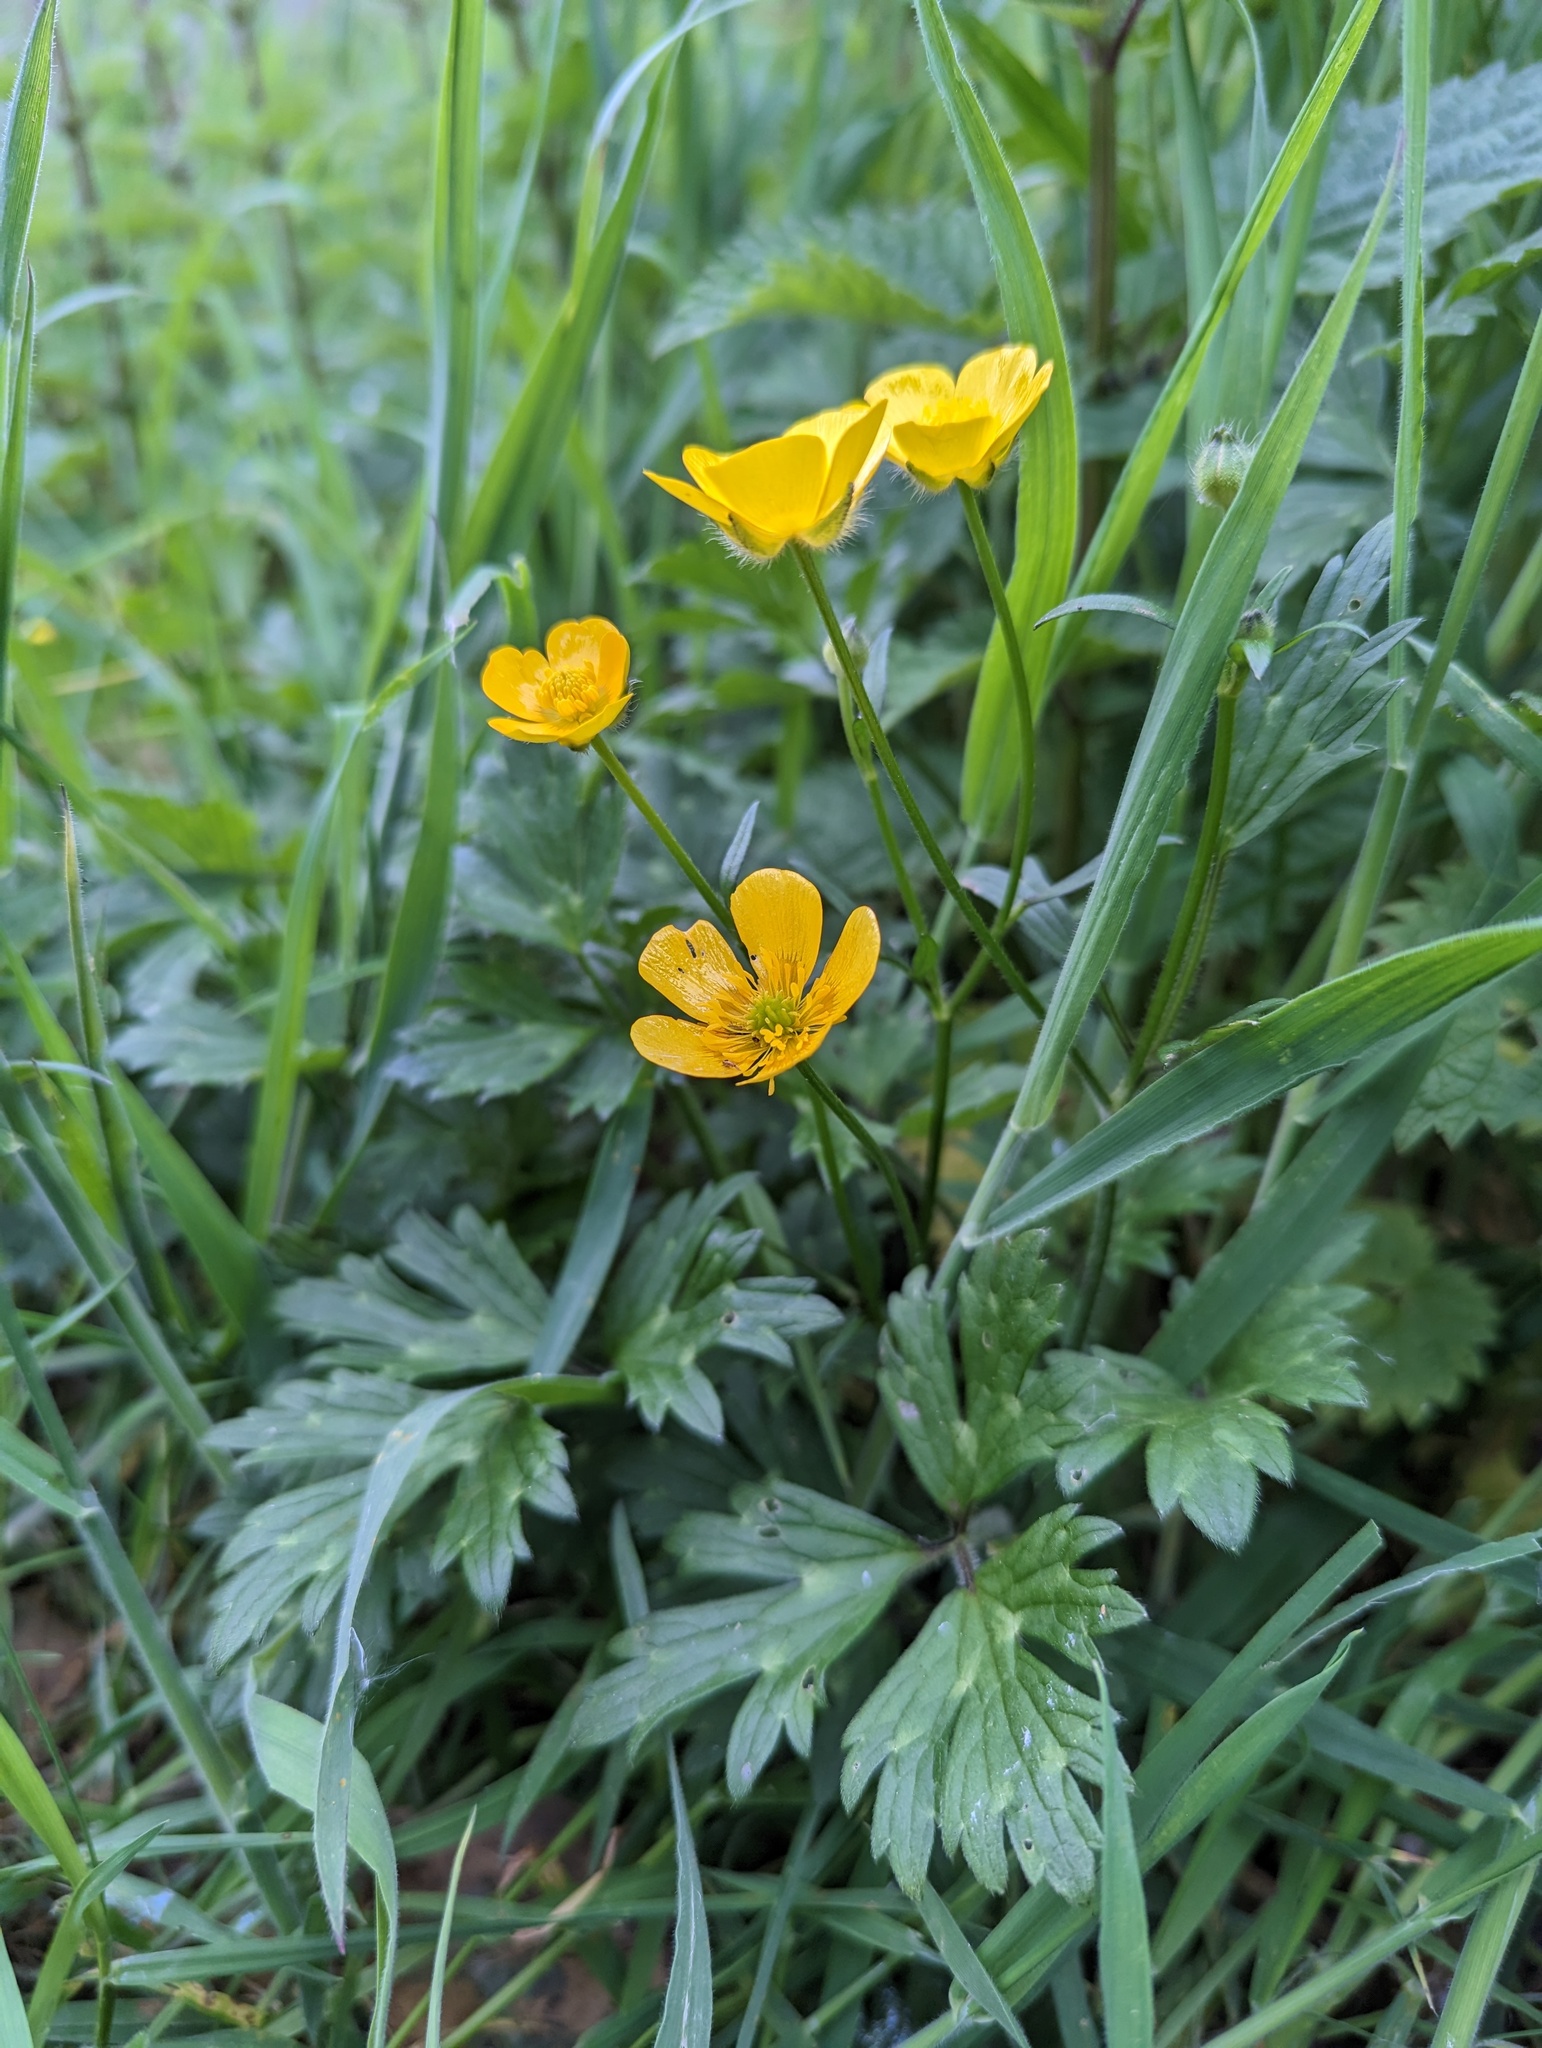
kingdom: Plantae
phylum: Tracheophyta
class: Magnoliopsida
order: Ranunculales
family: Ranunculaceae
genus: Ranunculus
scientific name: Ranunculus repens
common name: Creeping buttercup
